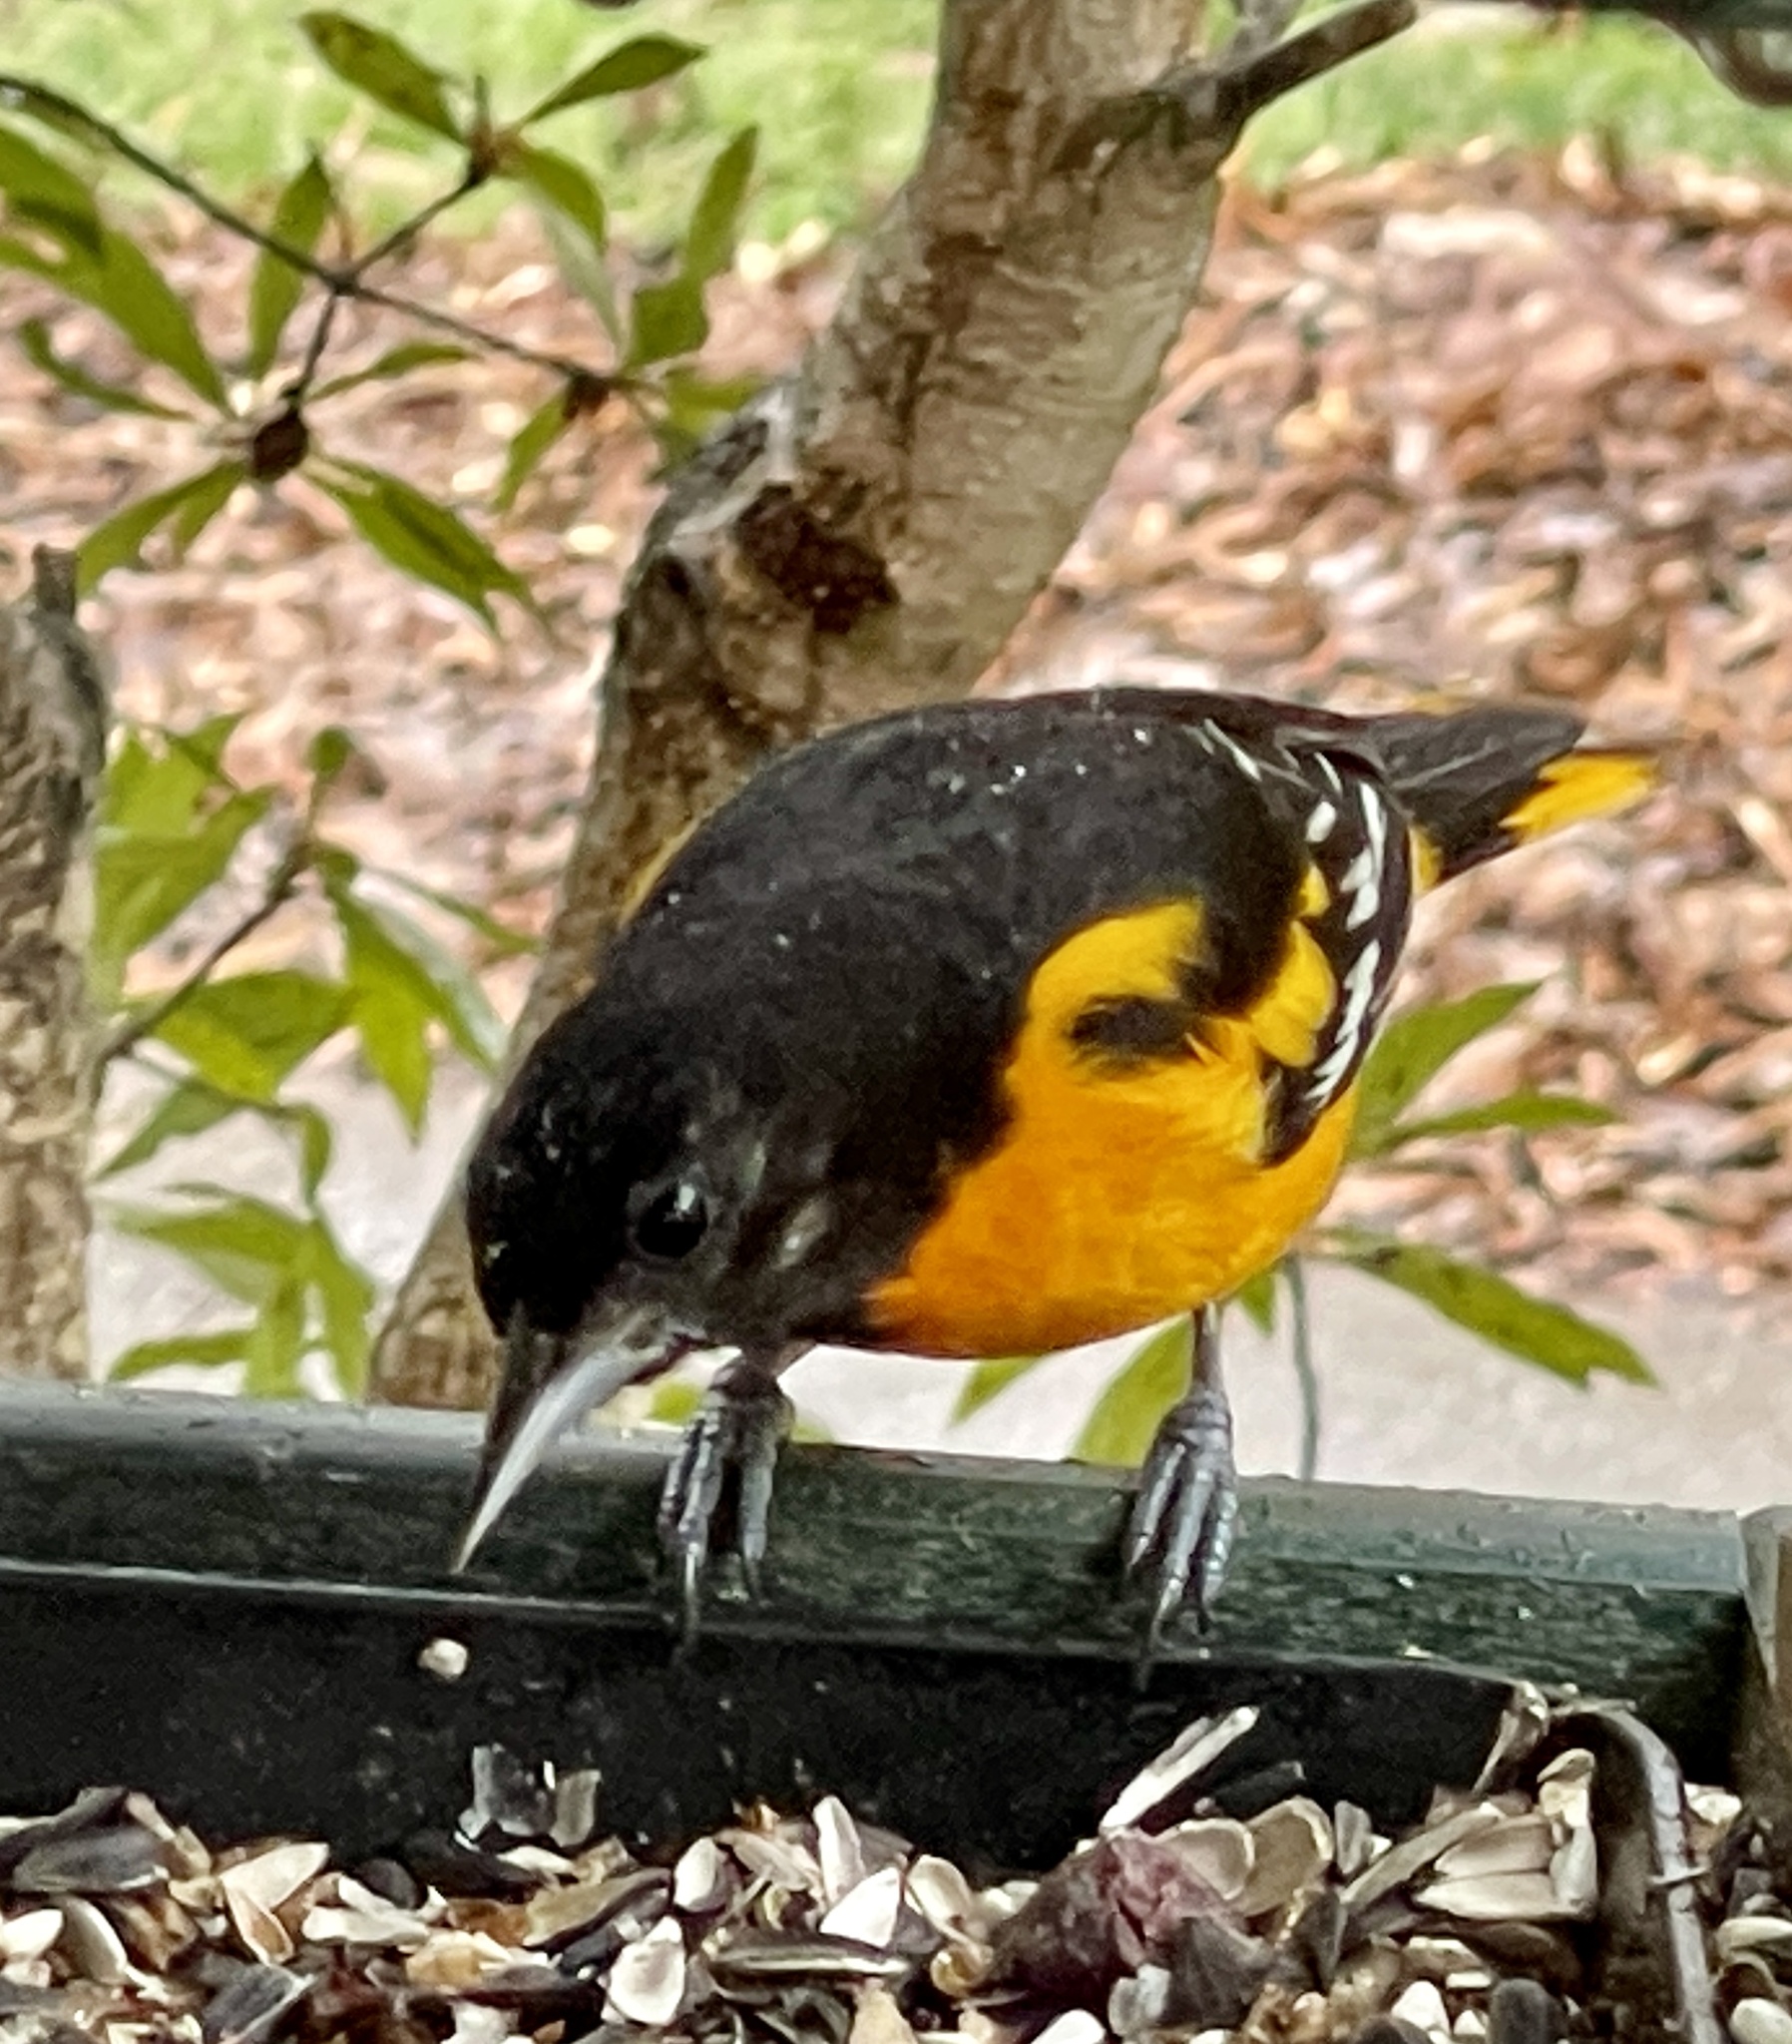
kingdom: Animalia
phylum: Chordata
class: Aves
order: Passeriformes
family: Icteridae
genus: Icterus
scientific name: Icterus galbula
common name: Baltimore oriole
